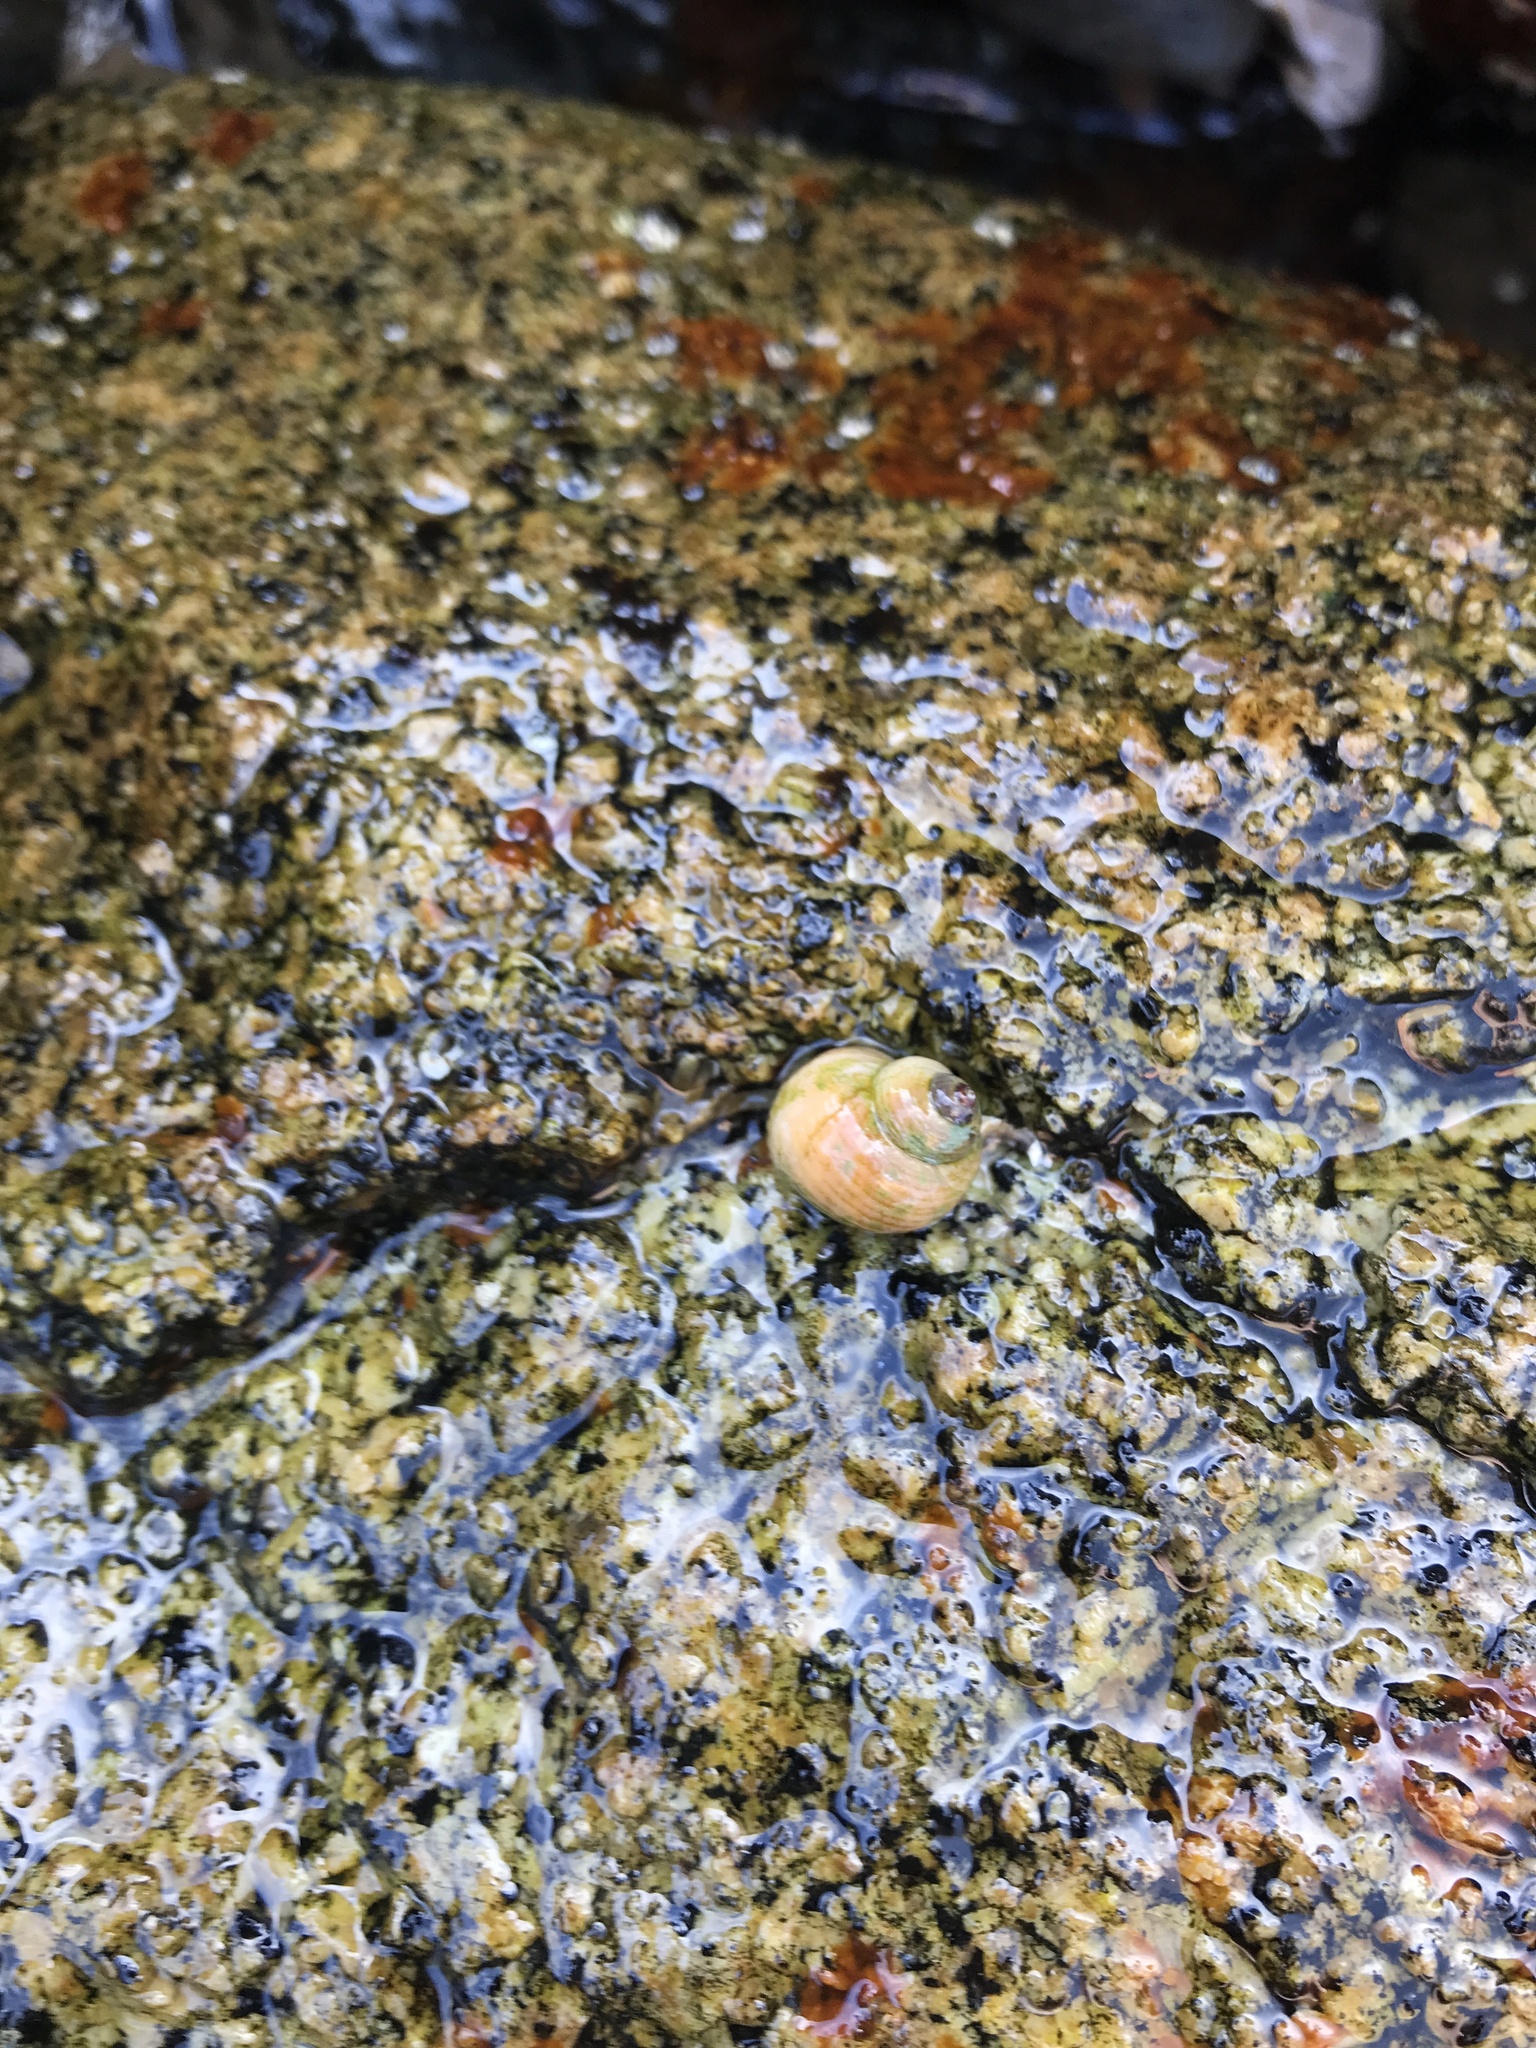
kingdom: Animalia
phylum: Mollusca
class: Gastropoda
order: Littorinimorpha
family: Littorinidae
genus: Littorina
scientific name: Littorina saxatilis
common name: Black-lined periwinkle
